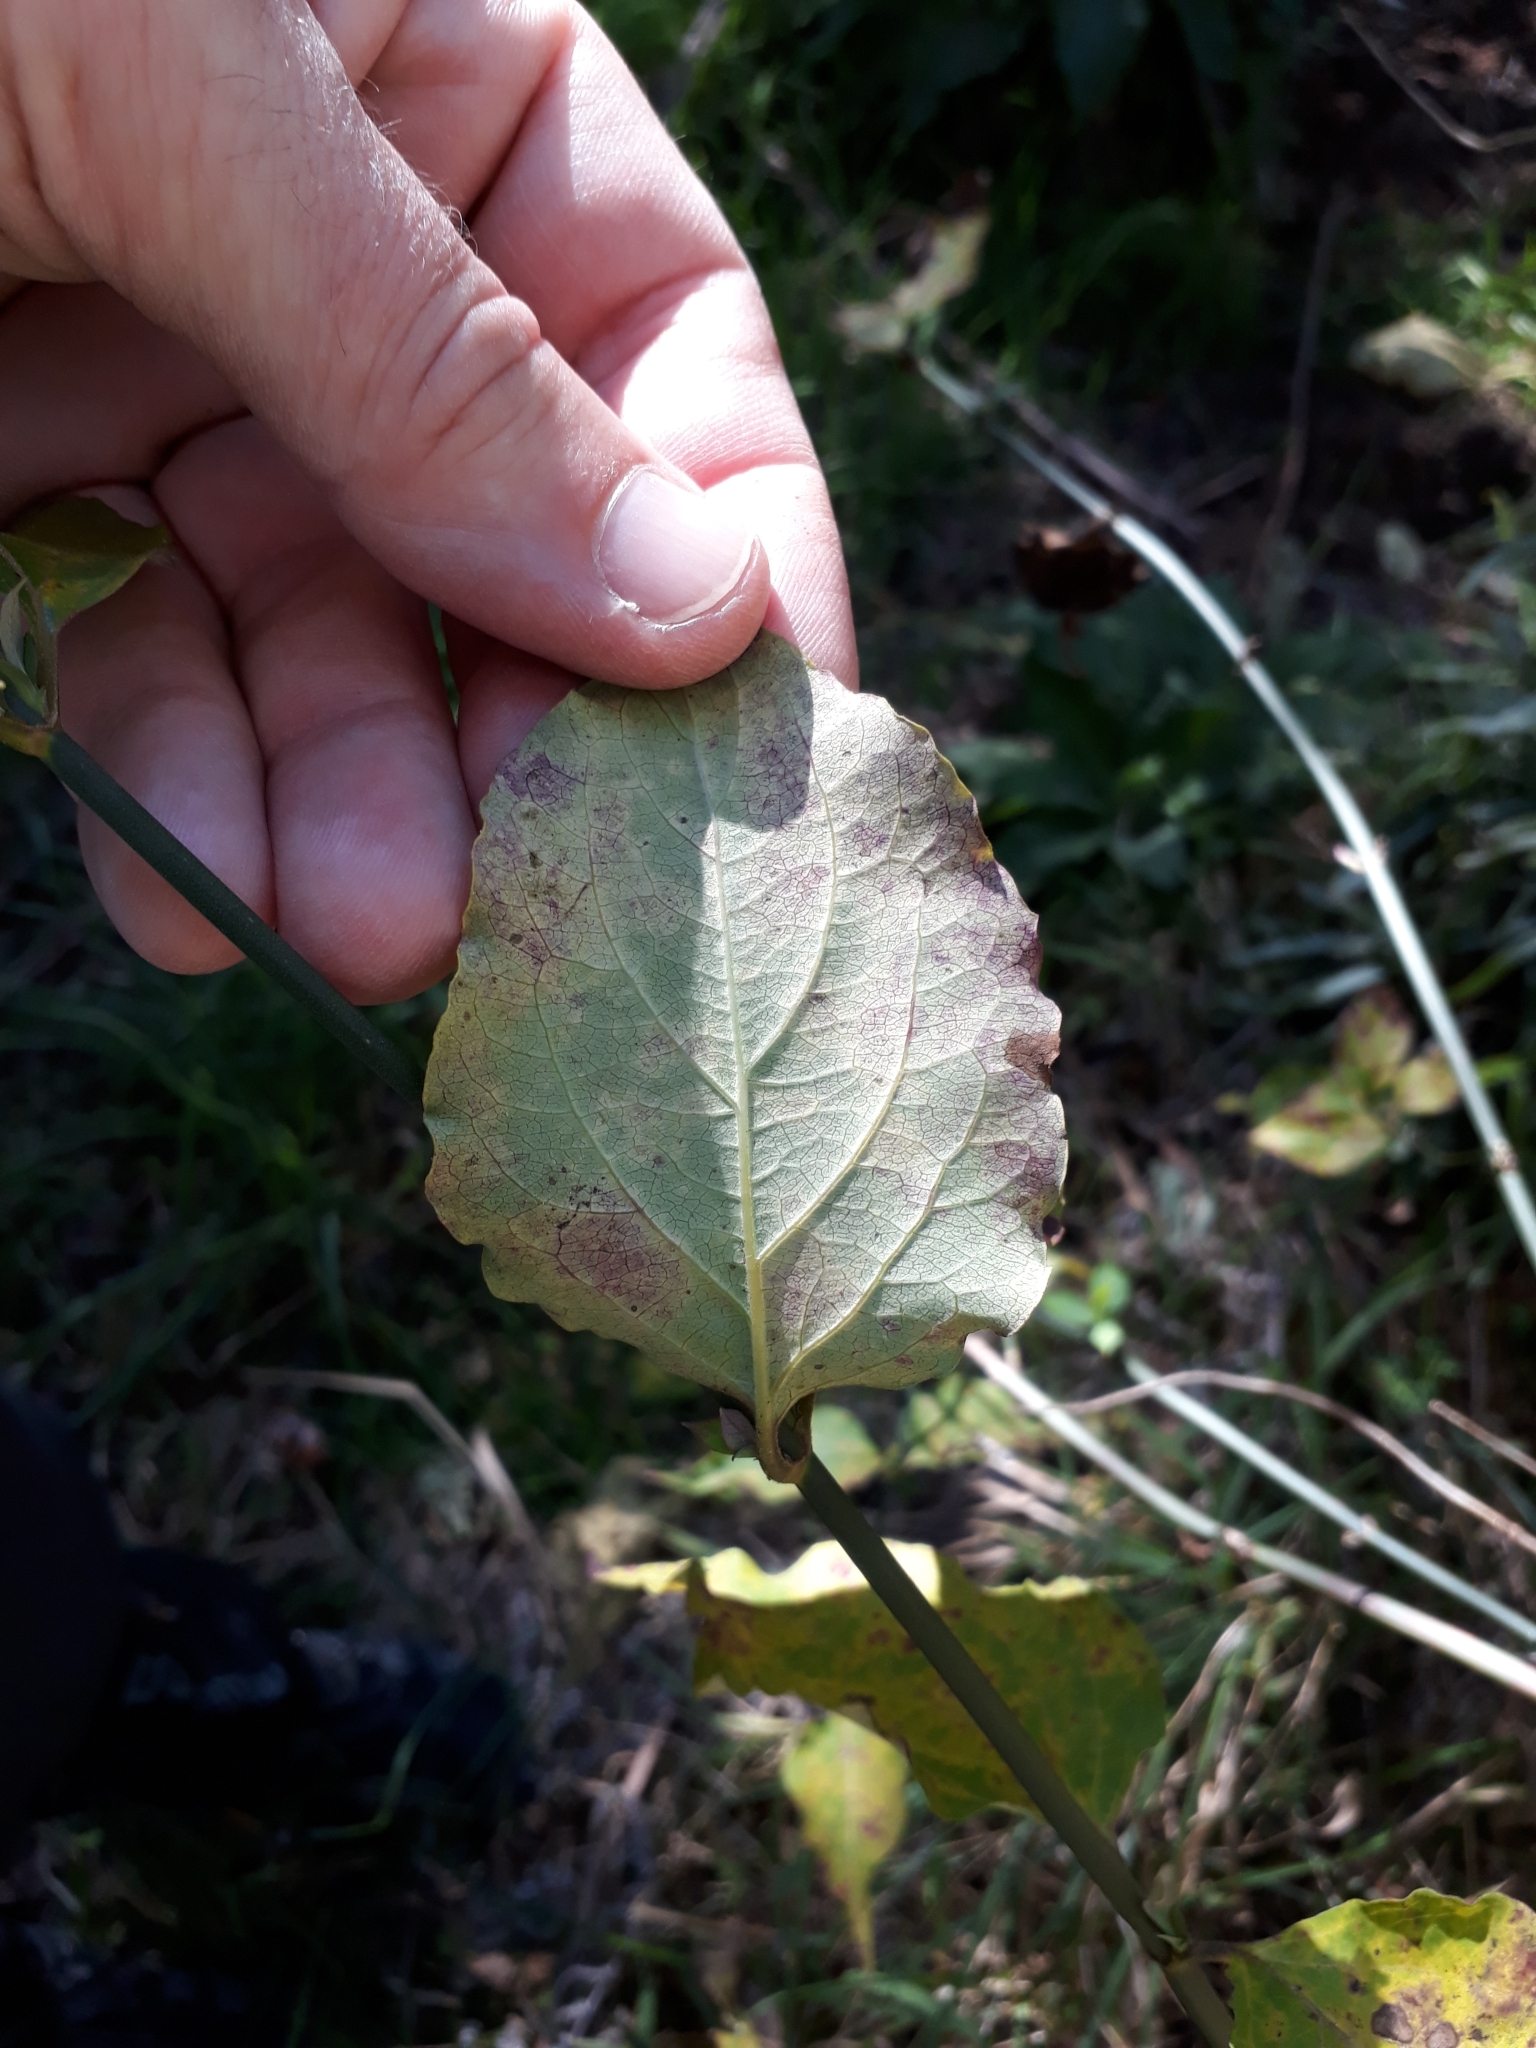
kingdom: Plantae
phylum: Tracheophyta
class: Magnoliopsida
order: Dipsacales
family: Caprifoliaceae
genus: Leycesteria
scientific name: Leycesteria formosa
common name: Himalayan honeysuckle
